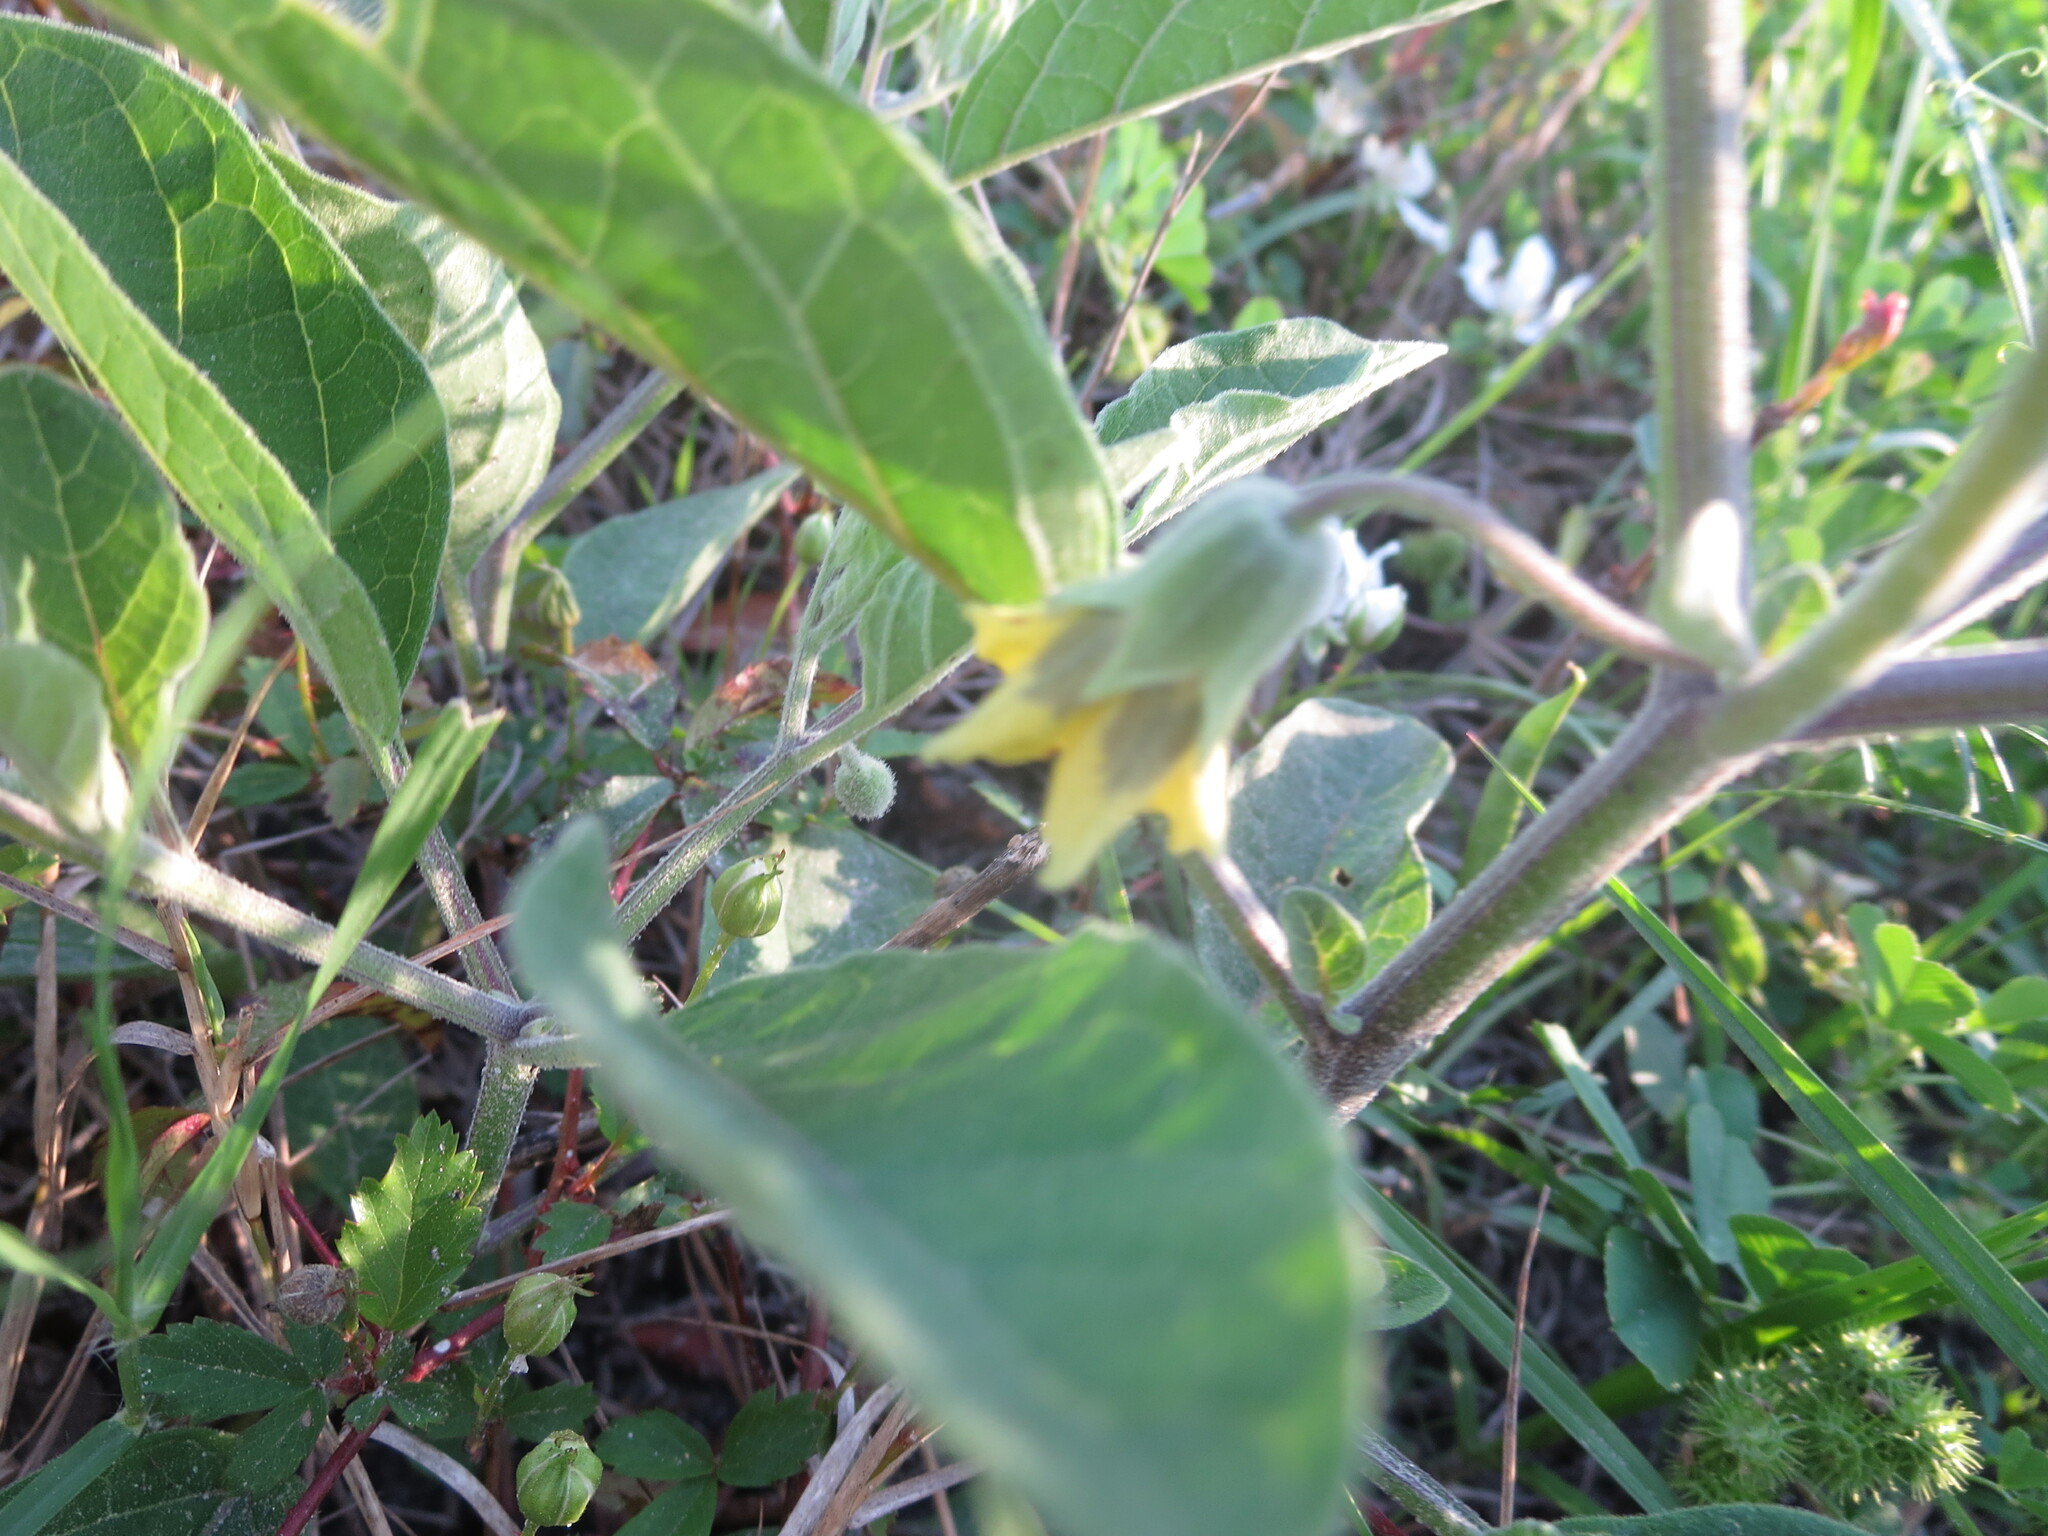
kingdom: Plantae
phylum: Tracheophyta
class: Magnoliopsida
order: Solanales
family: Solanaceae
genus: Physalis
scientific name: Physalis walteri
